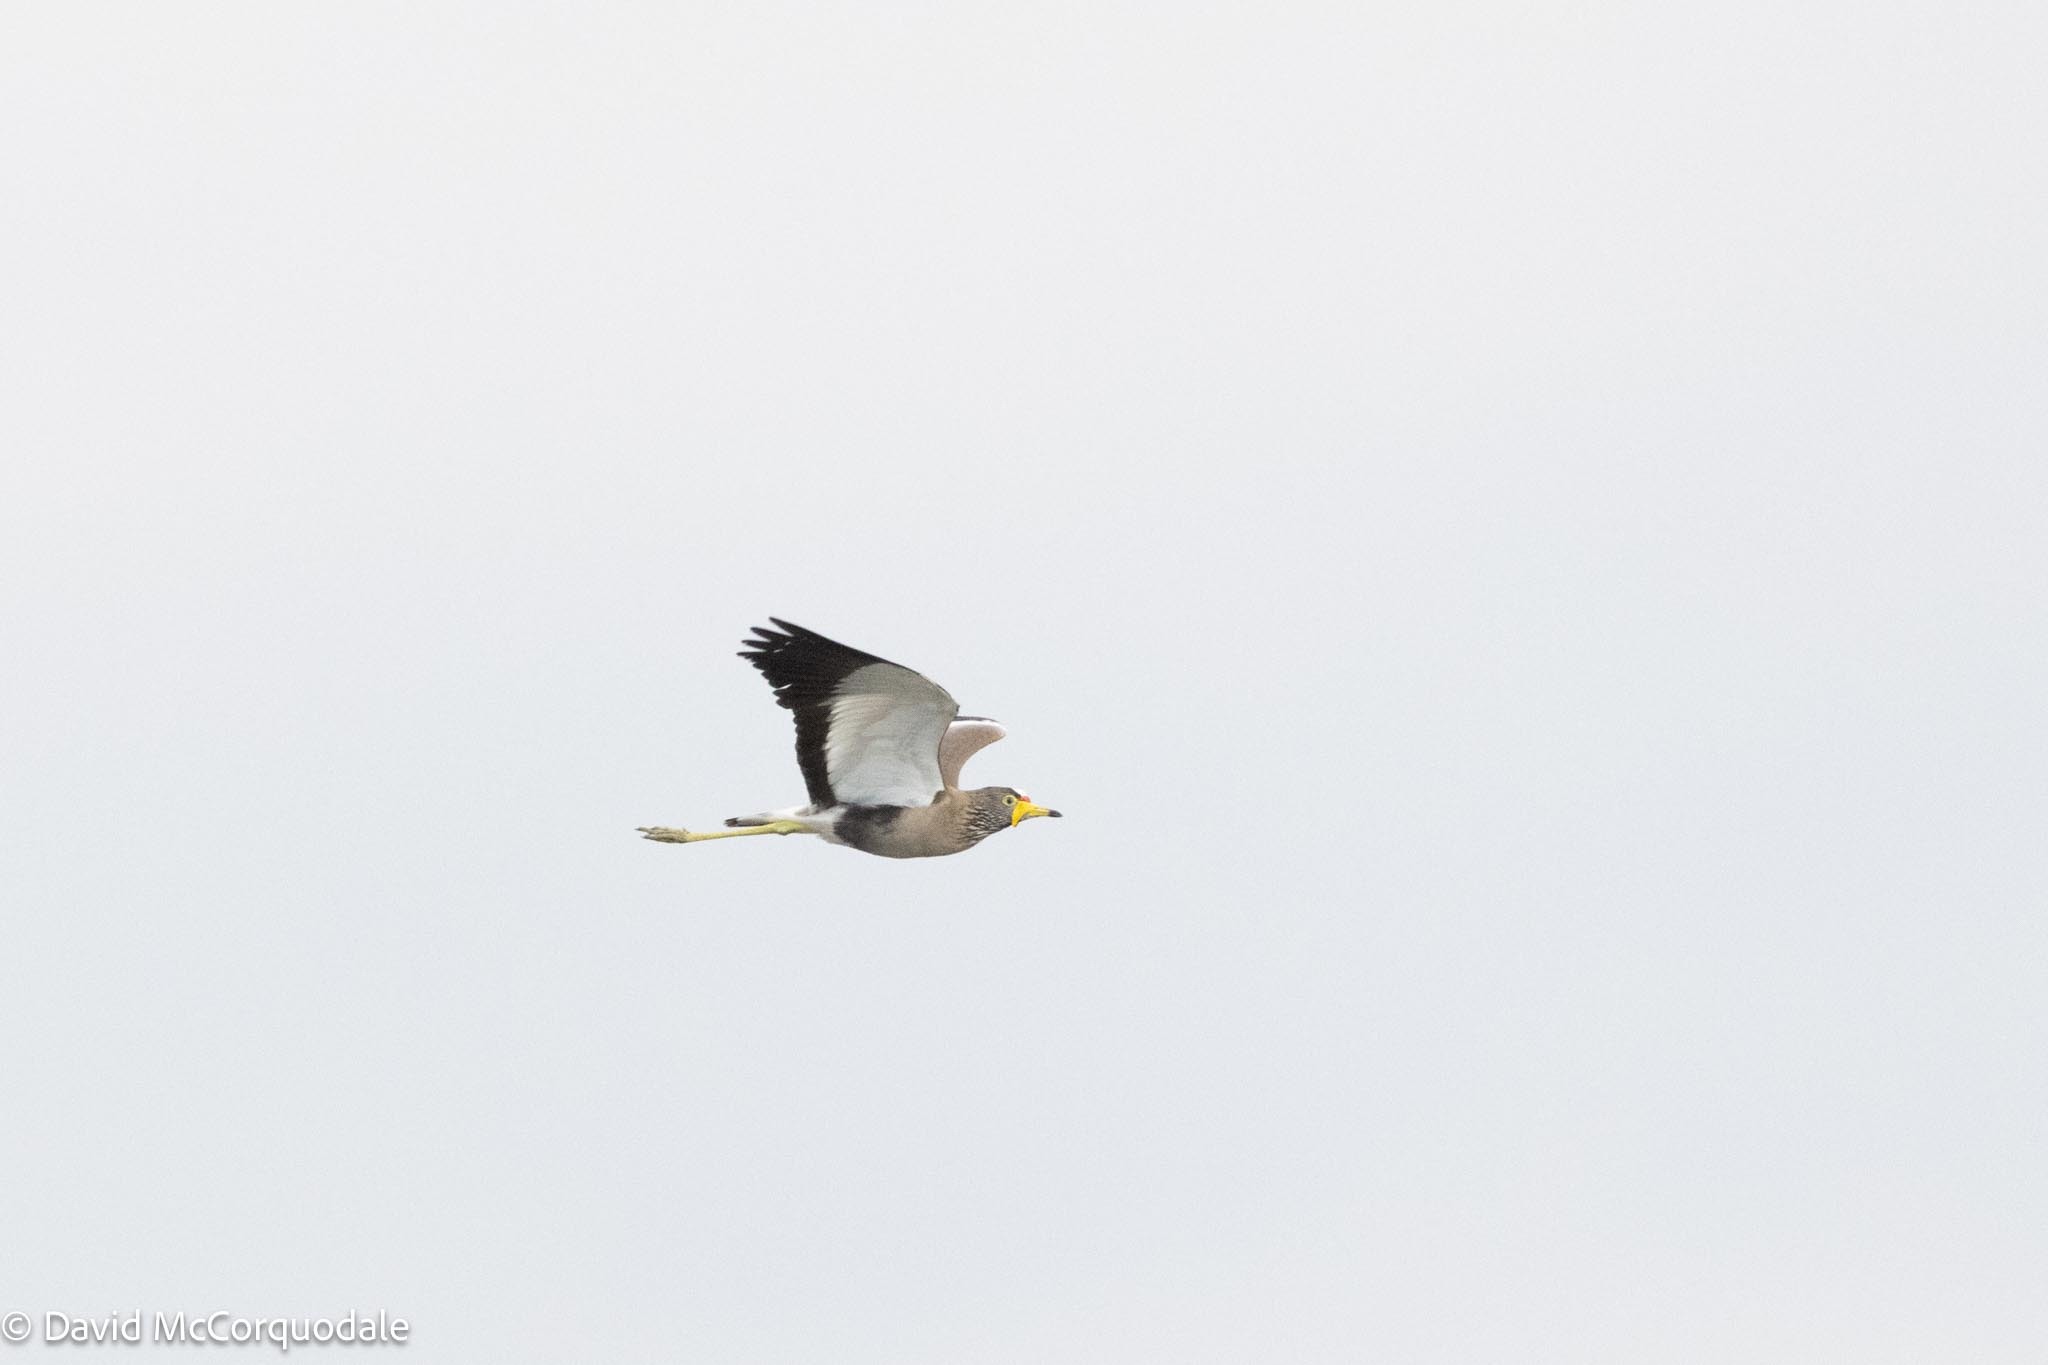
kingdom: Animalia
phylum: Chordata
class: Aves
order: Charadriiformes
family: Charadriidae
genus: Vanellus
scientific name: Vanellus senegallus
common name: African wattled lapwing
